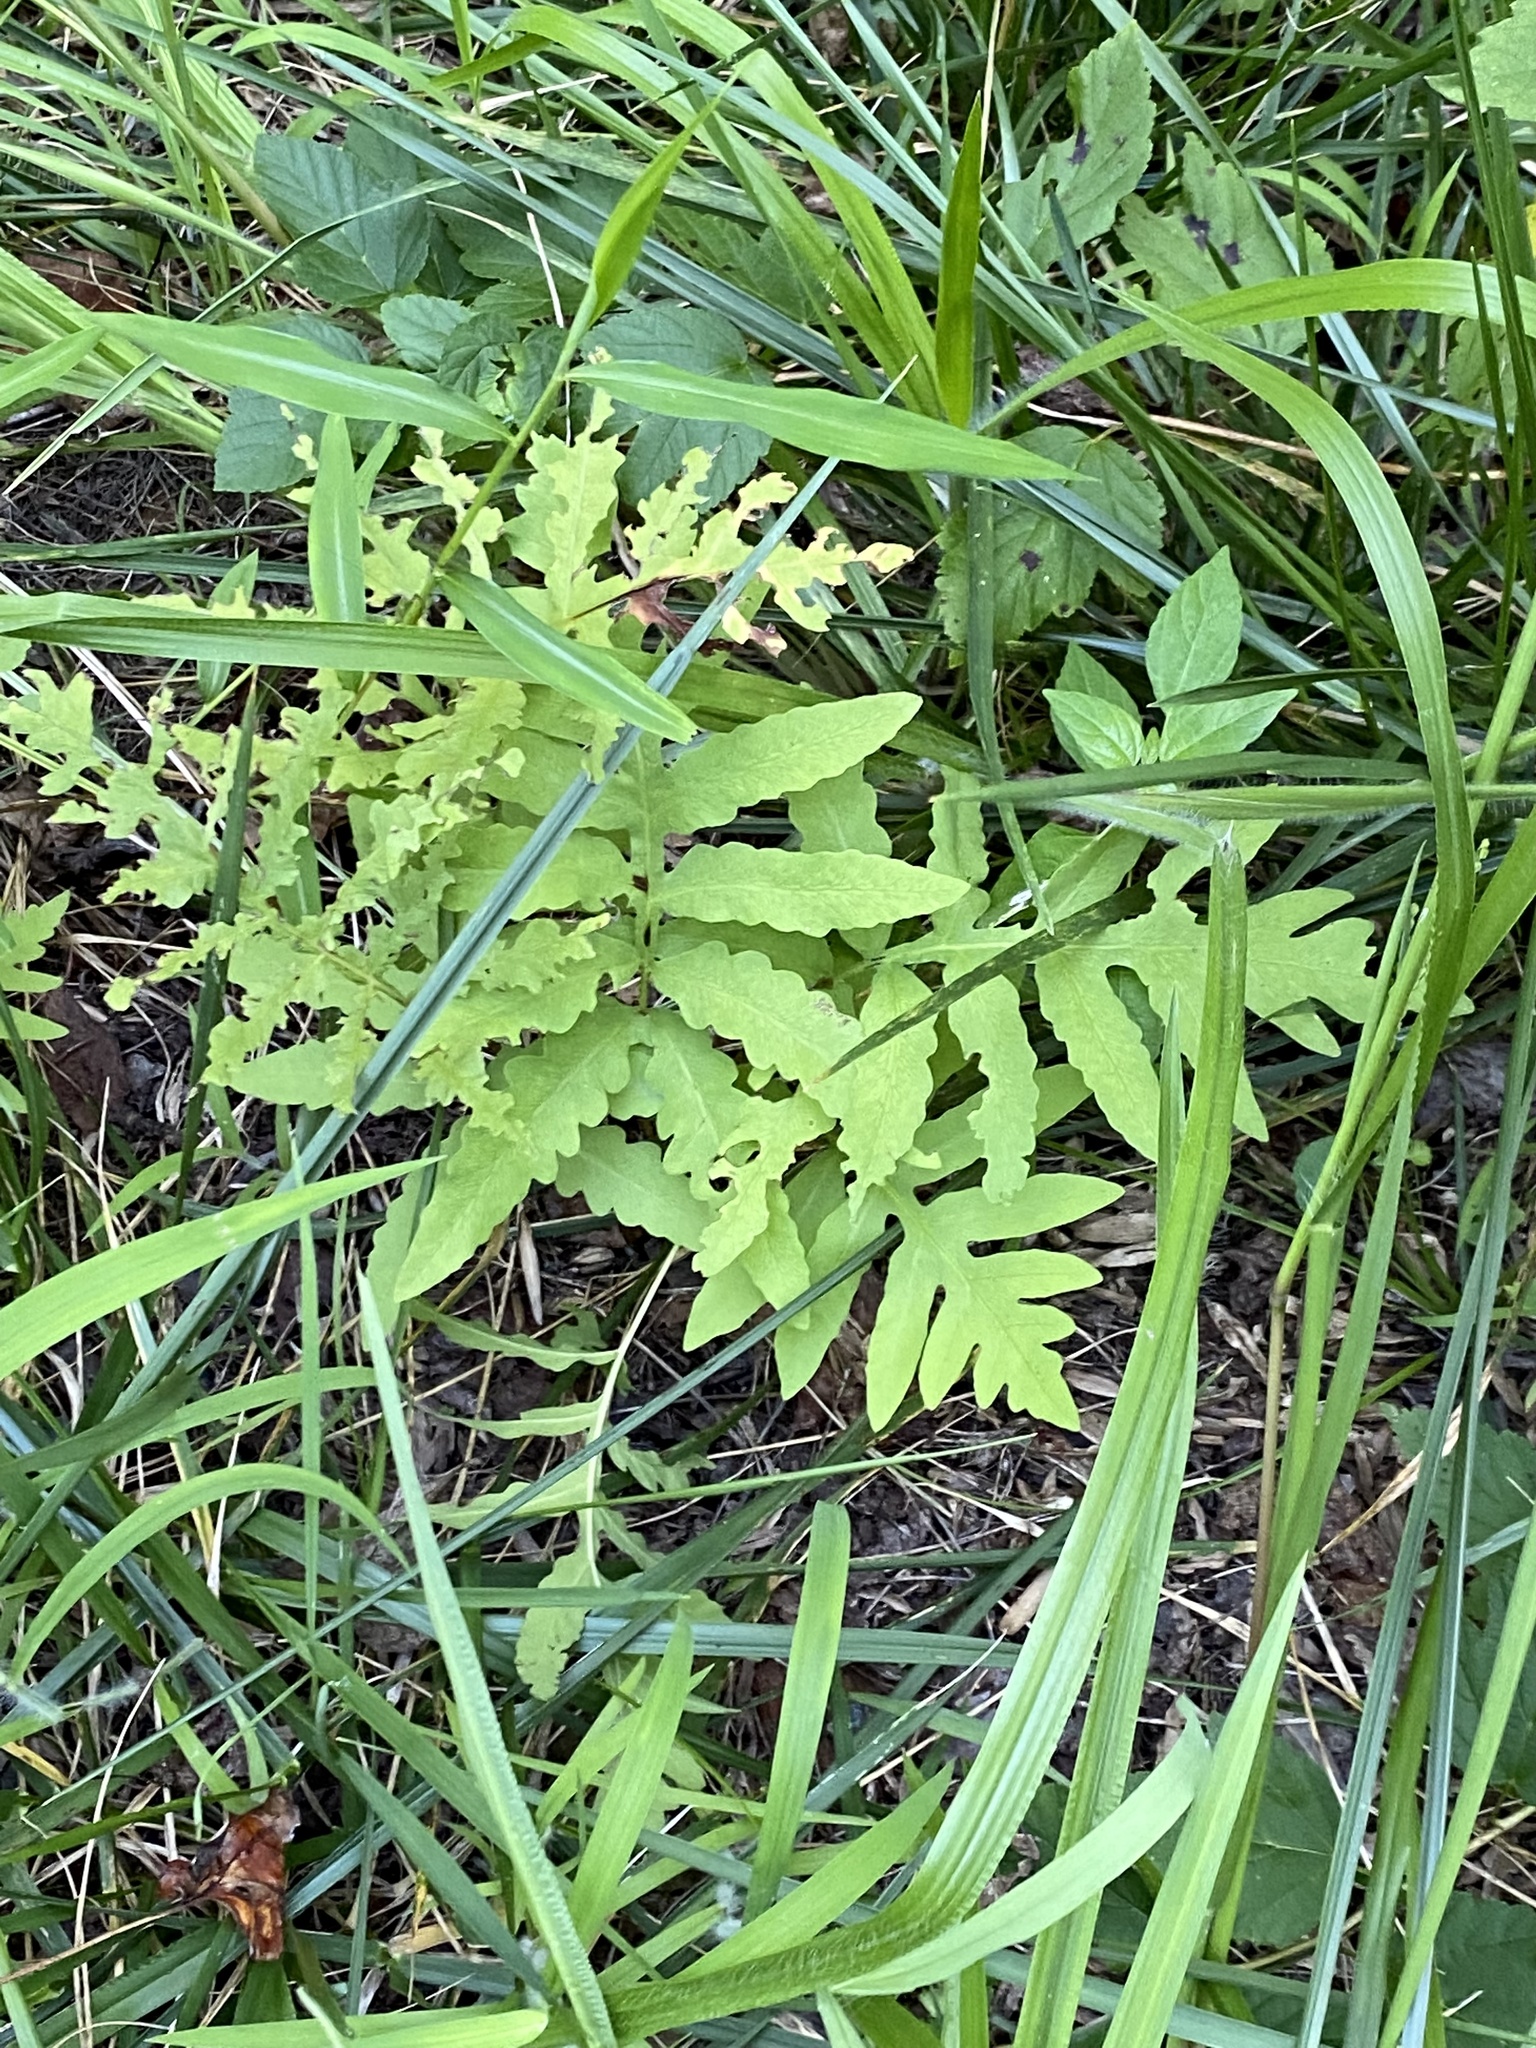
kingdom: Plantae
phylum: Tracheophyta
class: Polypodiopsida
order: Polypodiales
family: Onocleaceae
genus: Onoclea
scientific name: Onoclea sensibilis
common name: Sensitive fern
